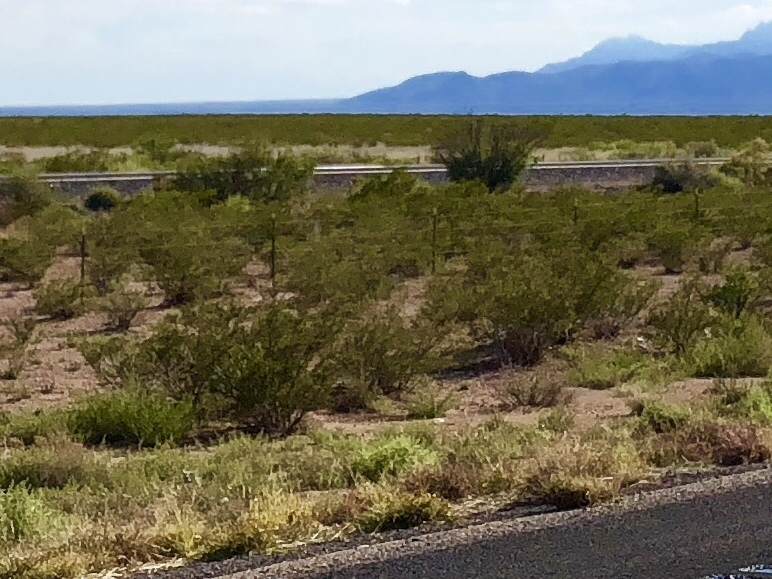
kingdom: Plantae
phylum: Tracheophyta
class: Magnoliopsida
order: Zygophyllales
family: Zygophyllaceae
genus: Larrea
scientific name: Larrea tridentata
